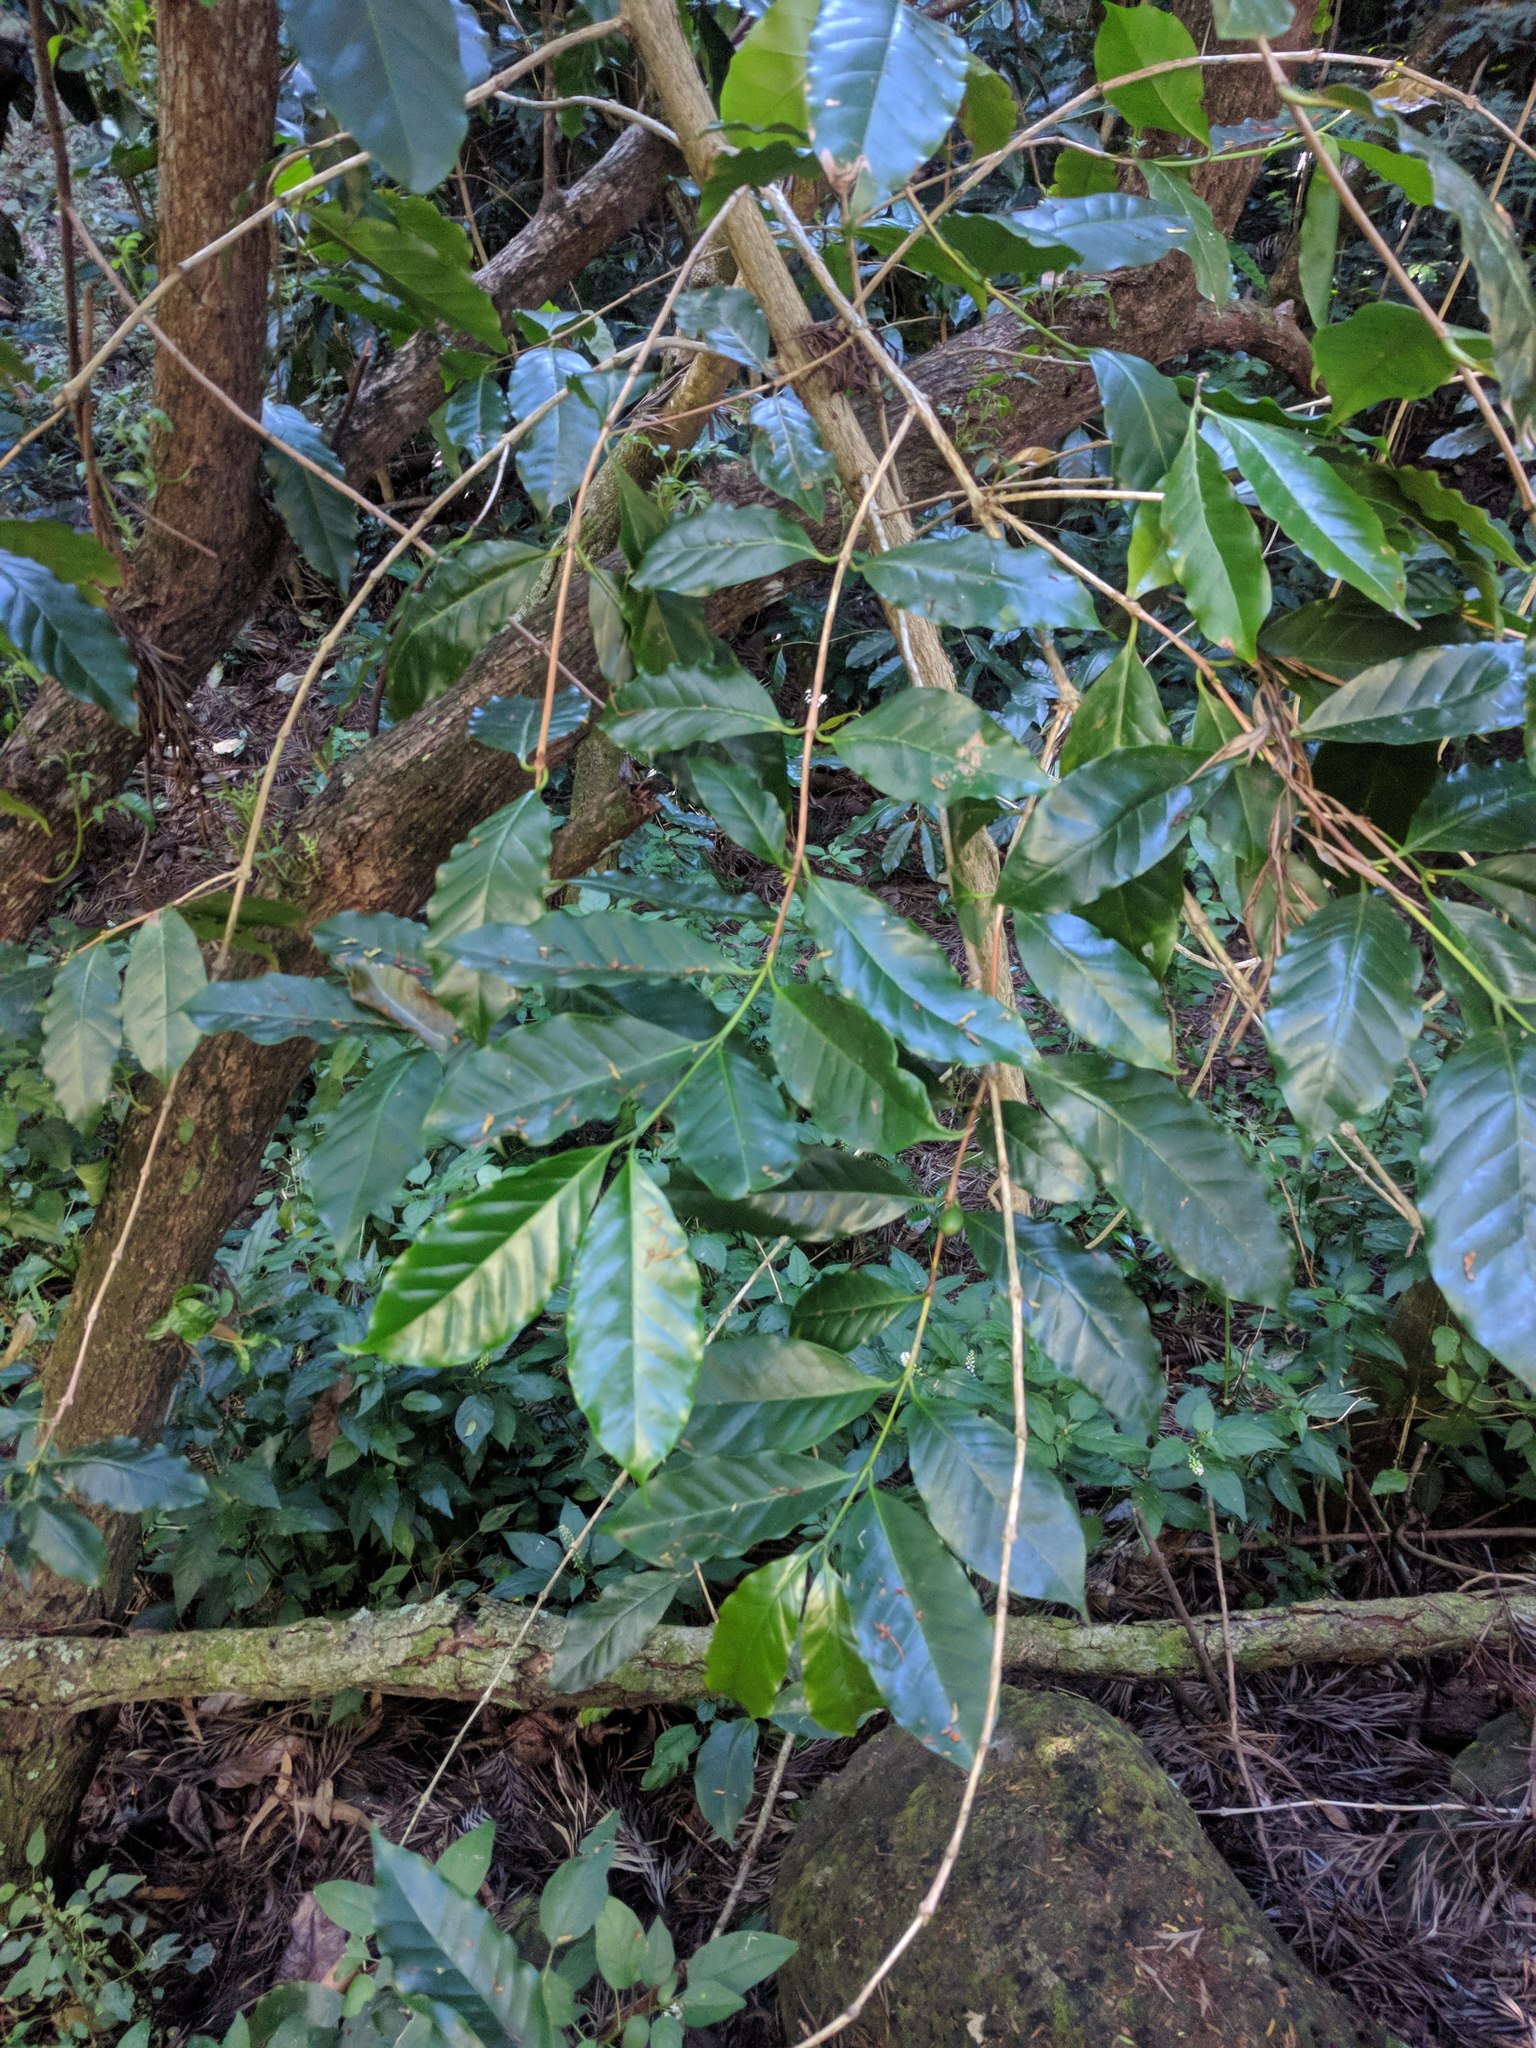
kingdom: Plantae
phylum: Tracheophyta
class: Magnoliopsida
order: Gentianales
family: Rubiaceae
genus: Coffea
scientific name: Coffea arabica
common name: Coffee
